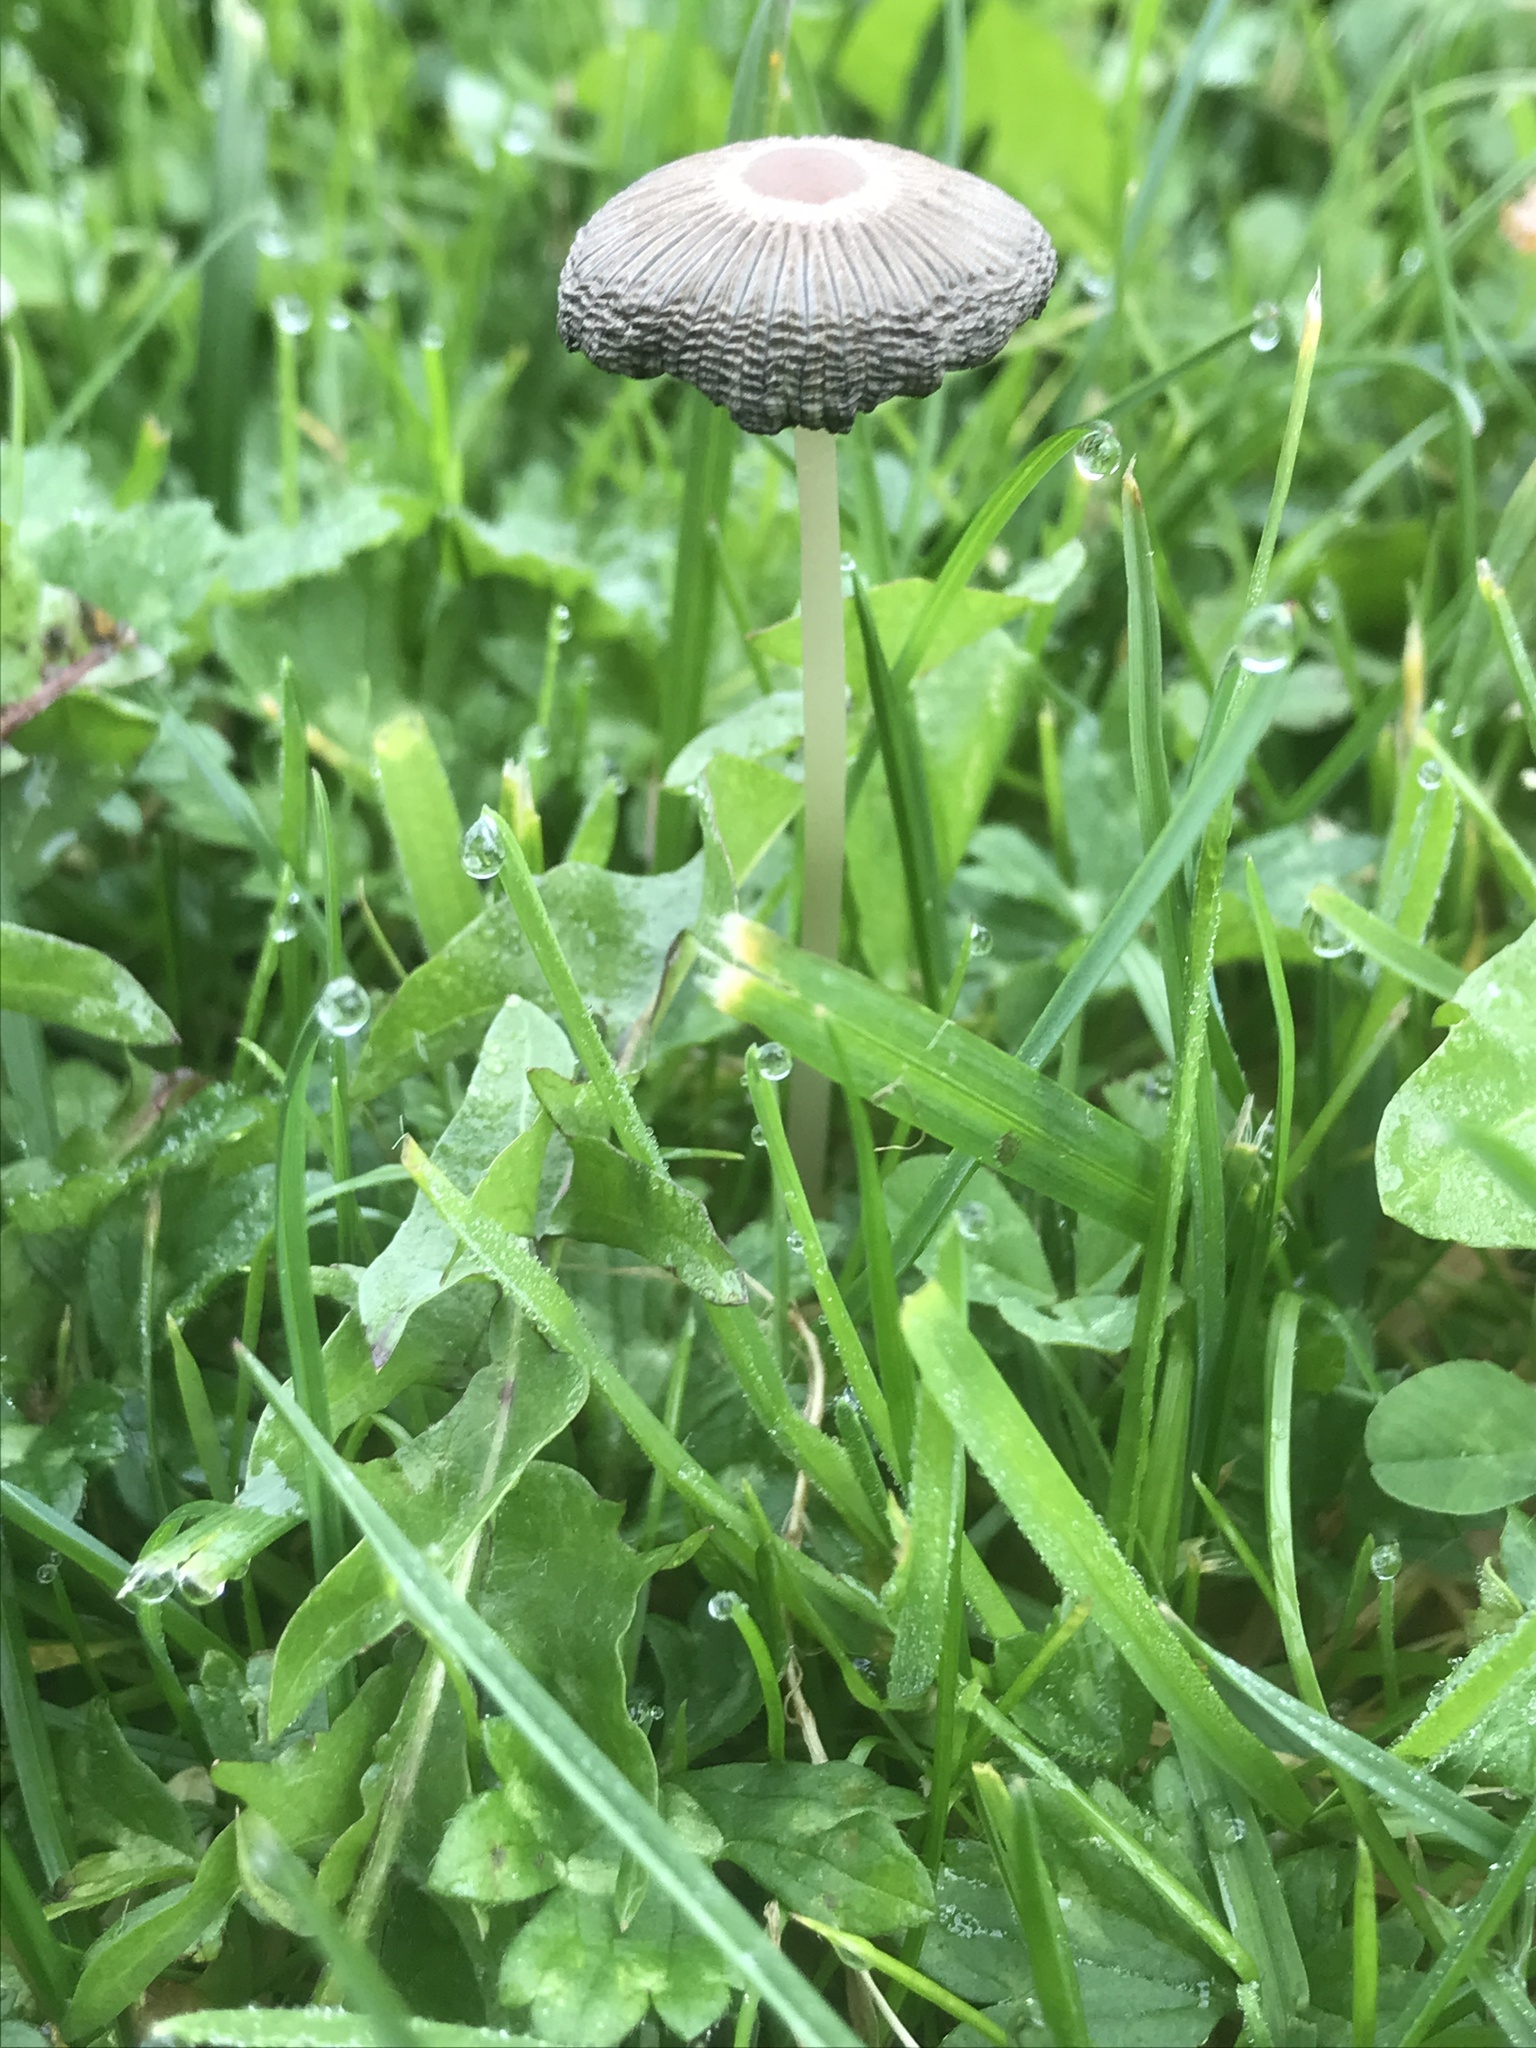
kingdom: Fungi
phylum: Basidiomycota
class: Agaricomycetes
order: Agaricales
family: Psathyrellaceae
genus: Parasola
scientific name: Parasola plicatilis
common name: Pleated inkcap
